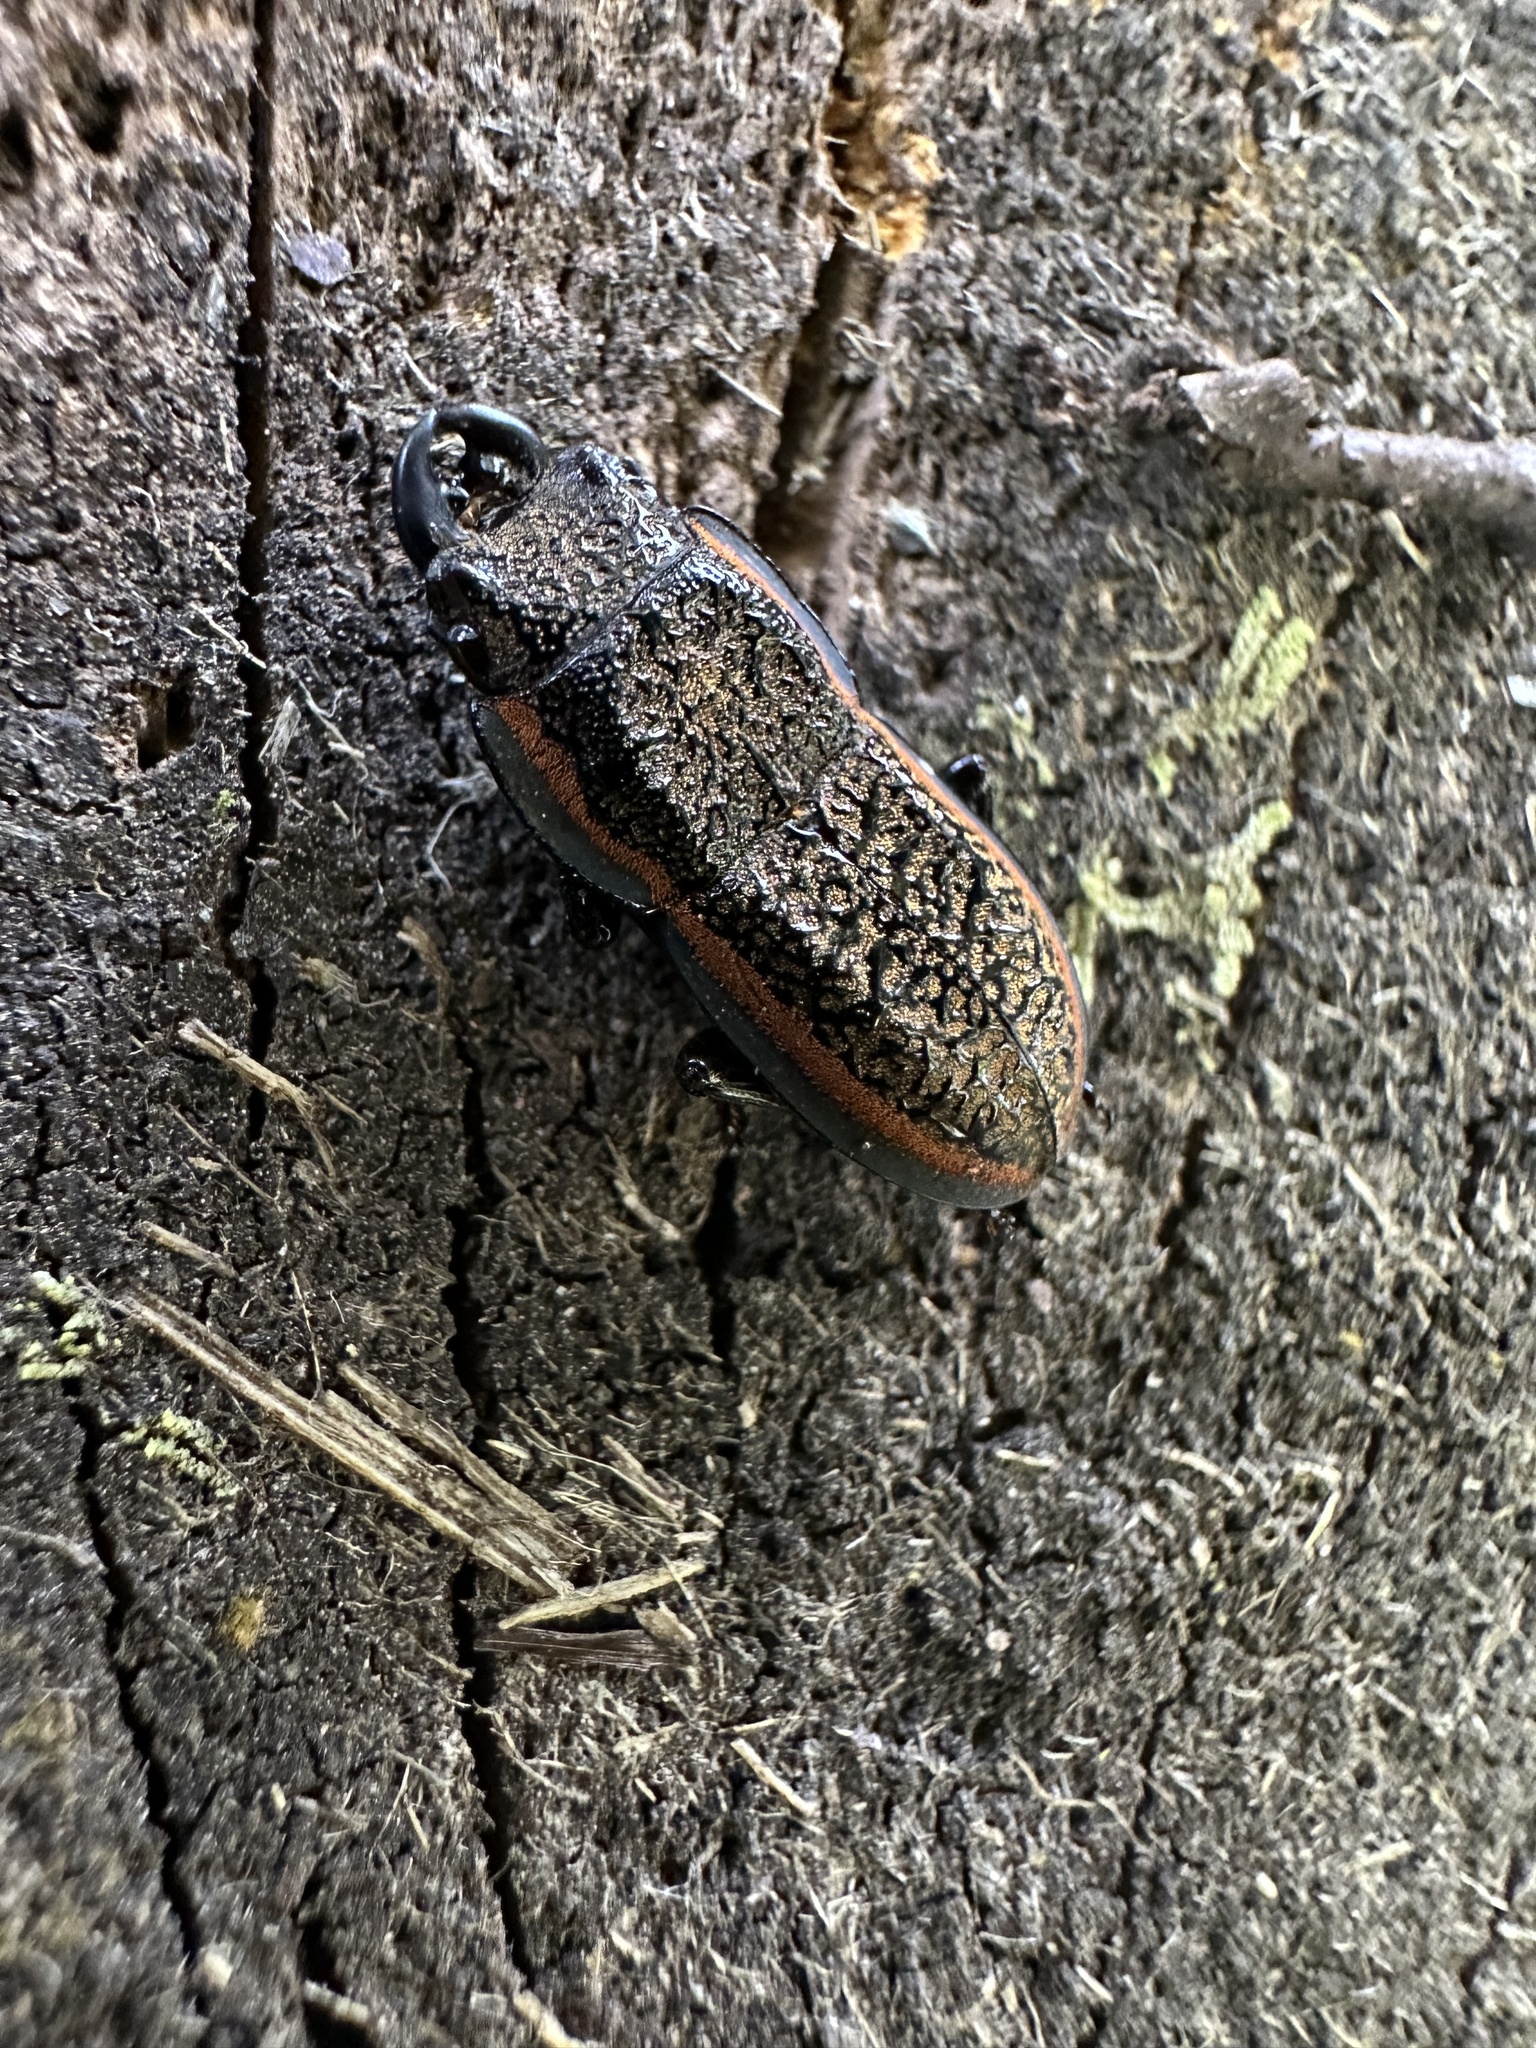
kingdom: Animalia
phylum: Arthropoda
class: Insecta
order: Coleoptera
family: Lucanidae
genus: Erichius
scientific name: Erichius caelatus
